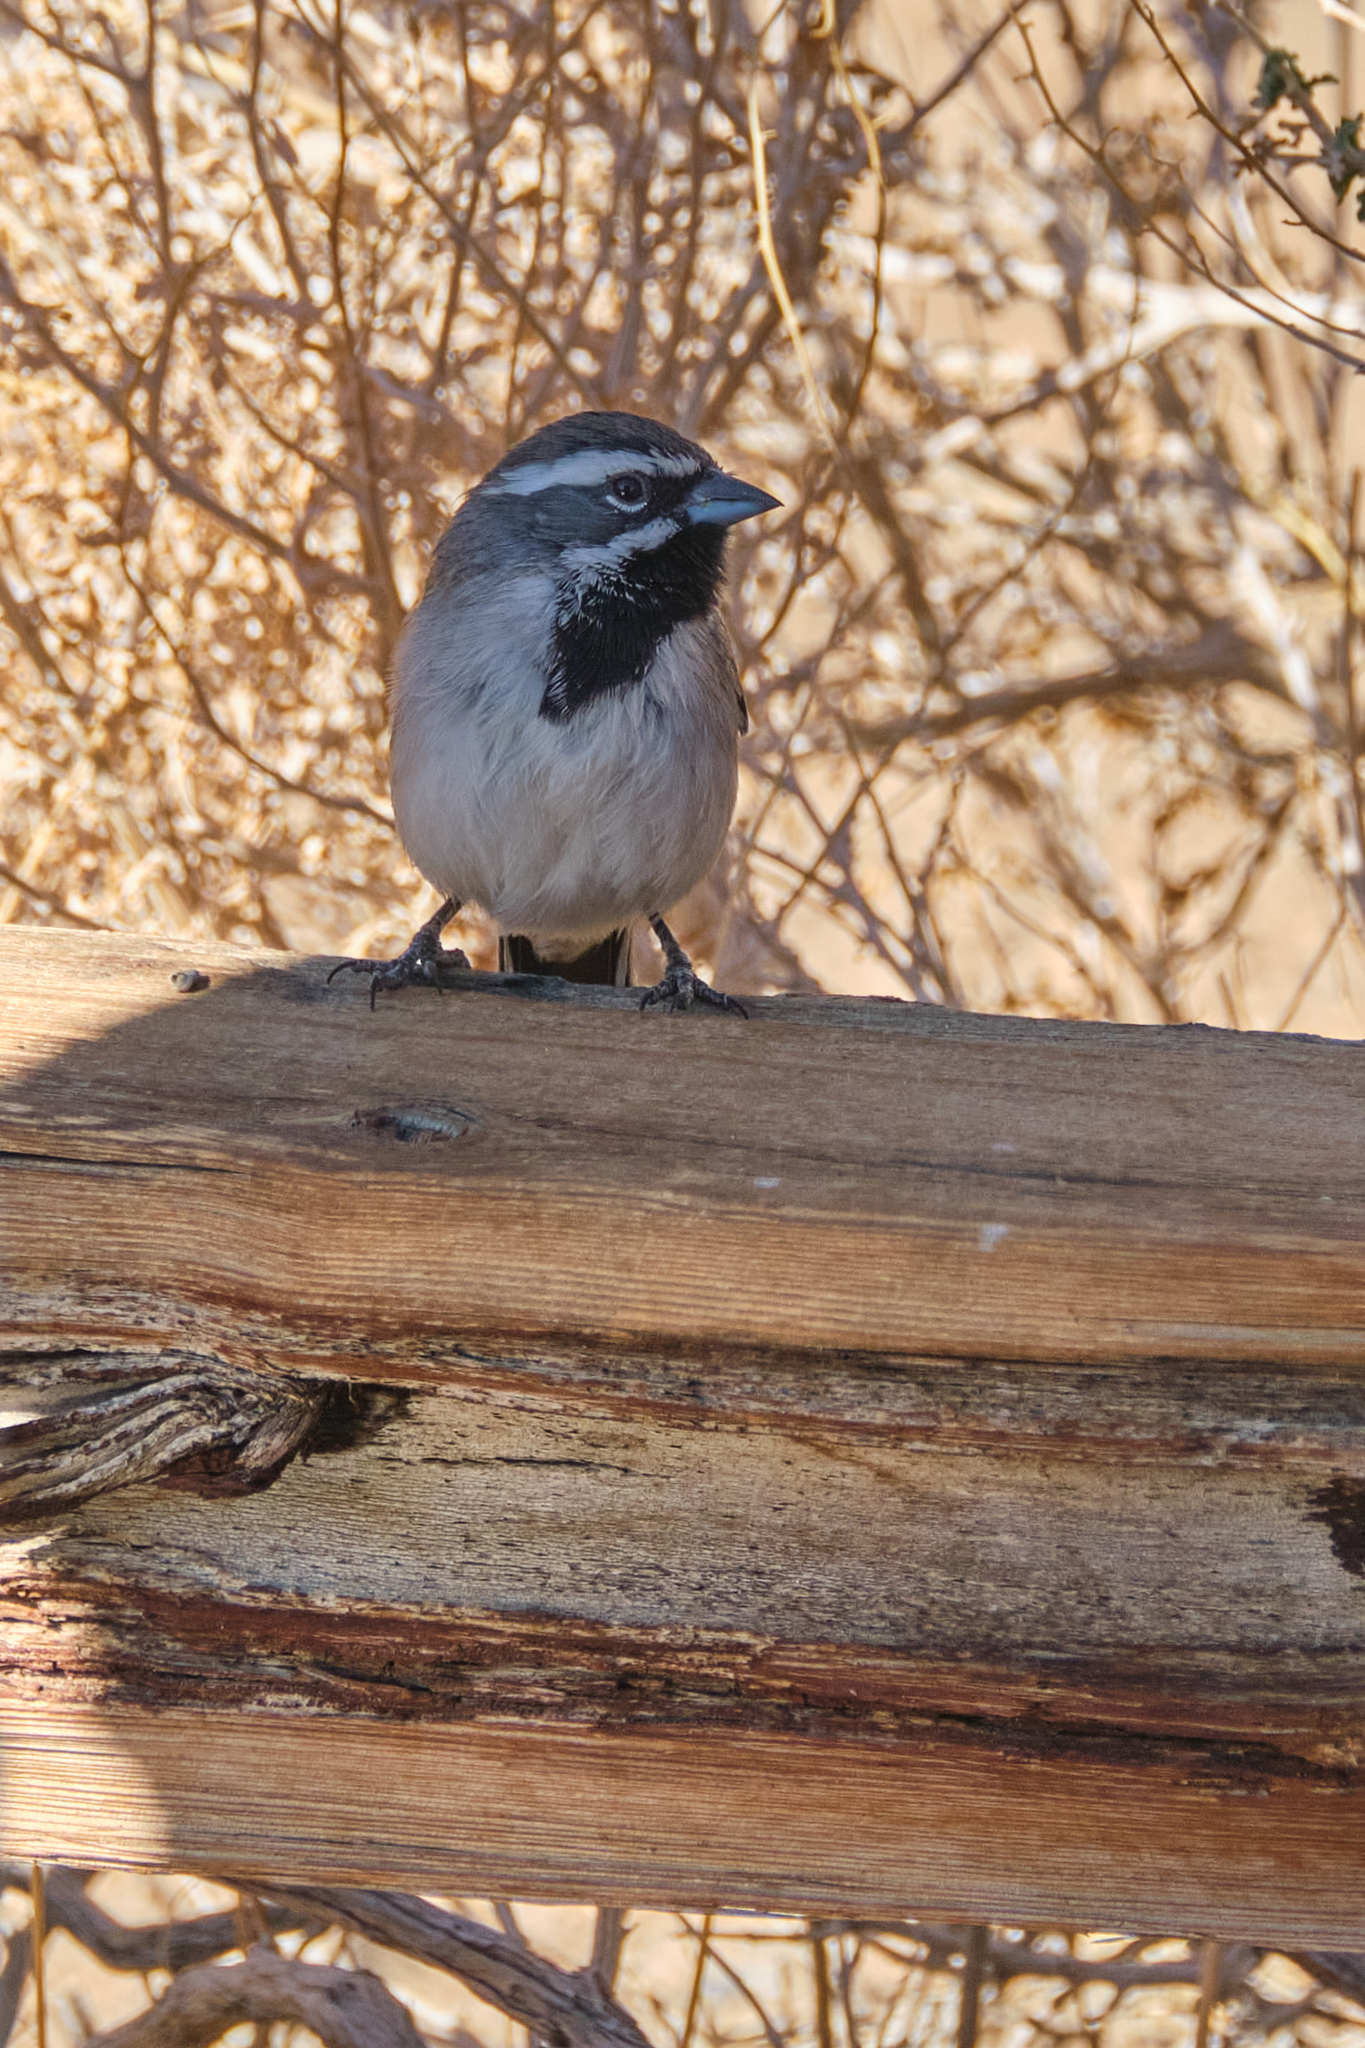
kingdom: Animalia
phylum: Chordata
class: Aves
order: Passeriformes
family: Passerellidae
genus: Amphispiza
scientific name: Amphispiza bilineata
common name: Black-throated sparrow
